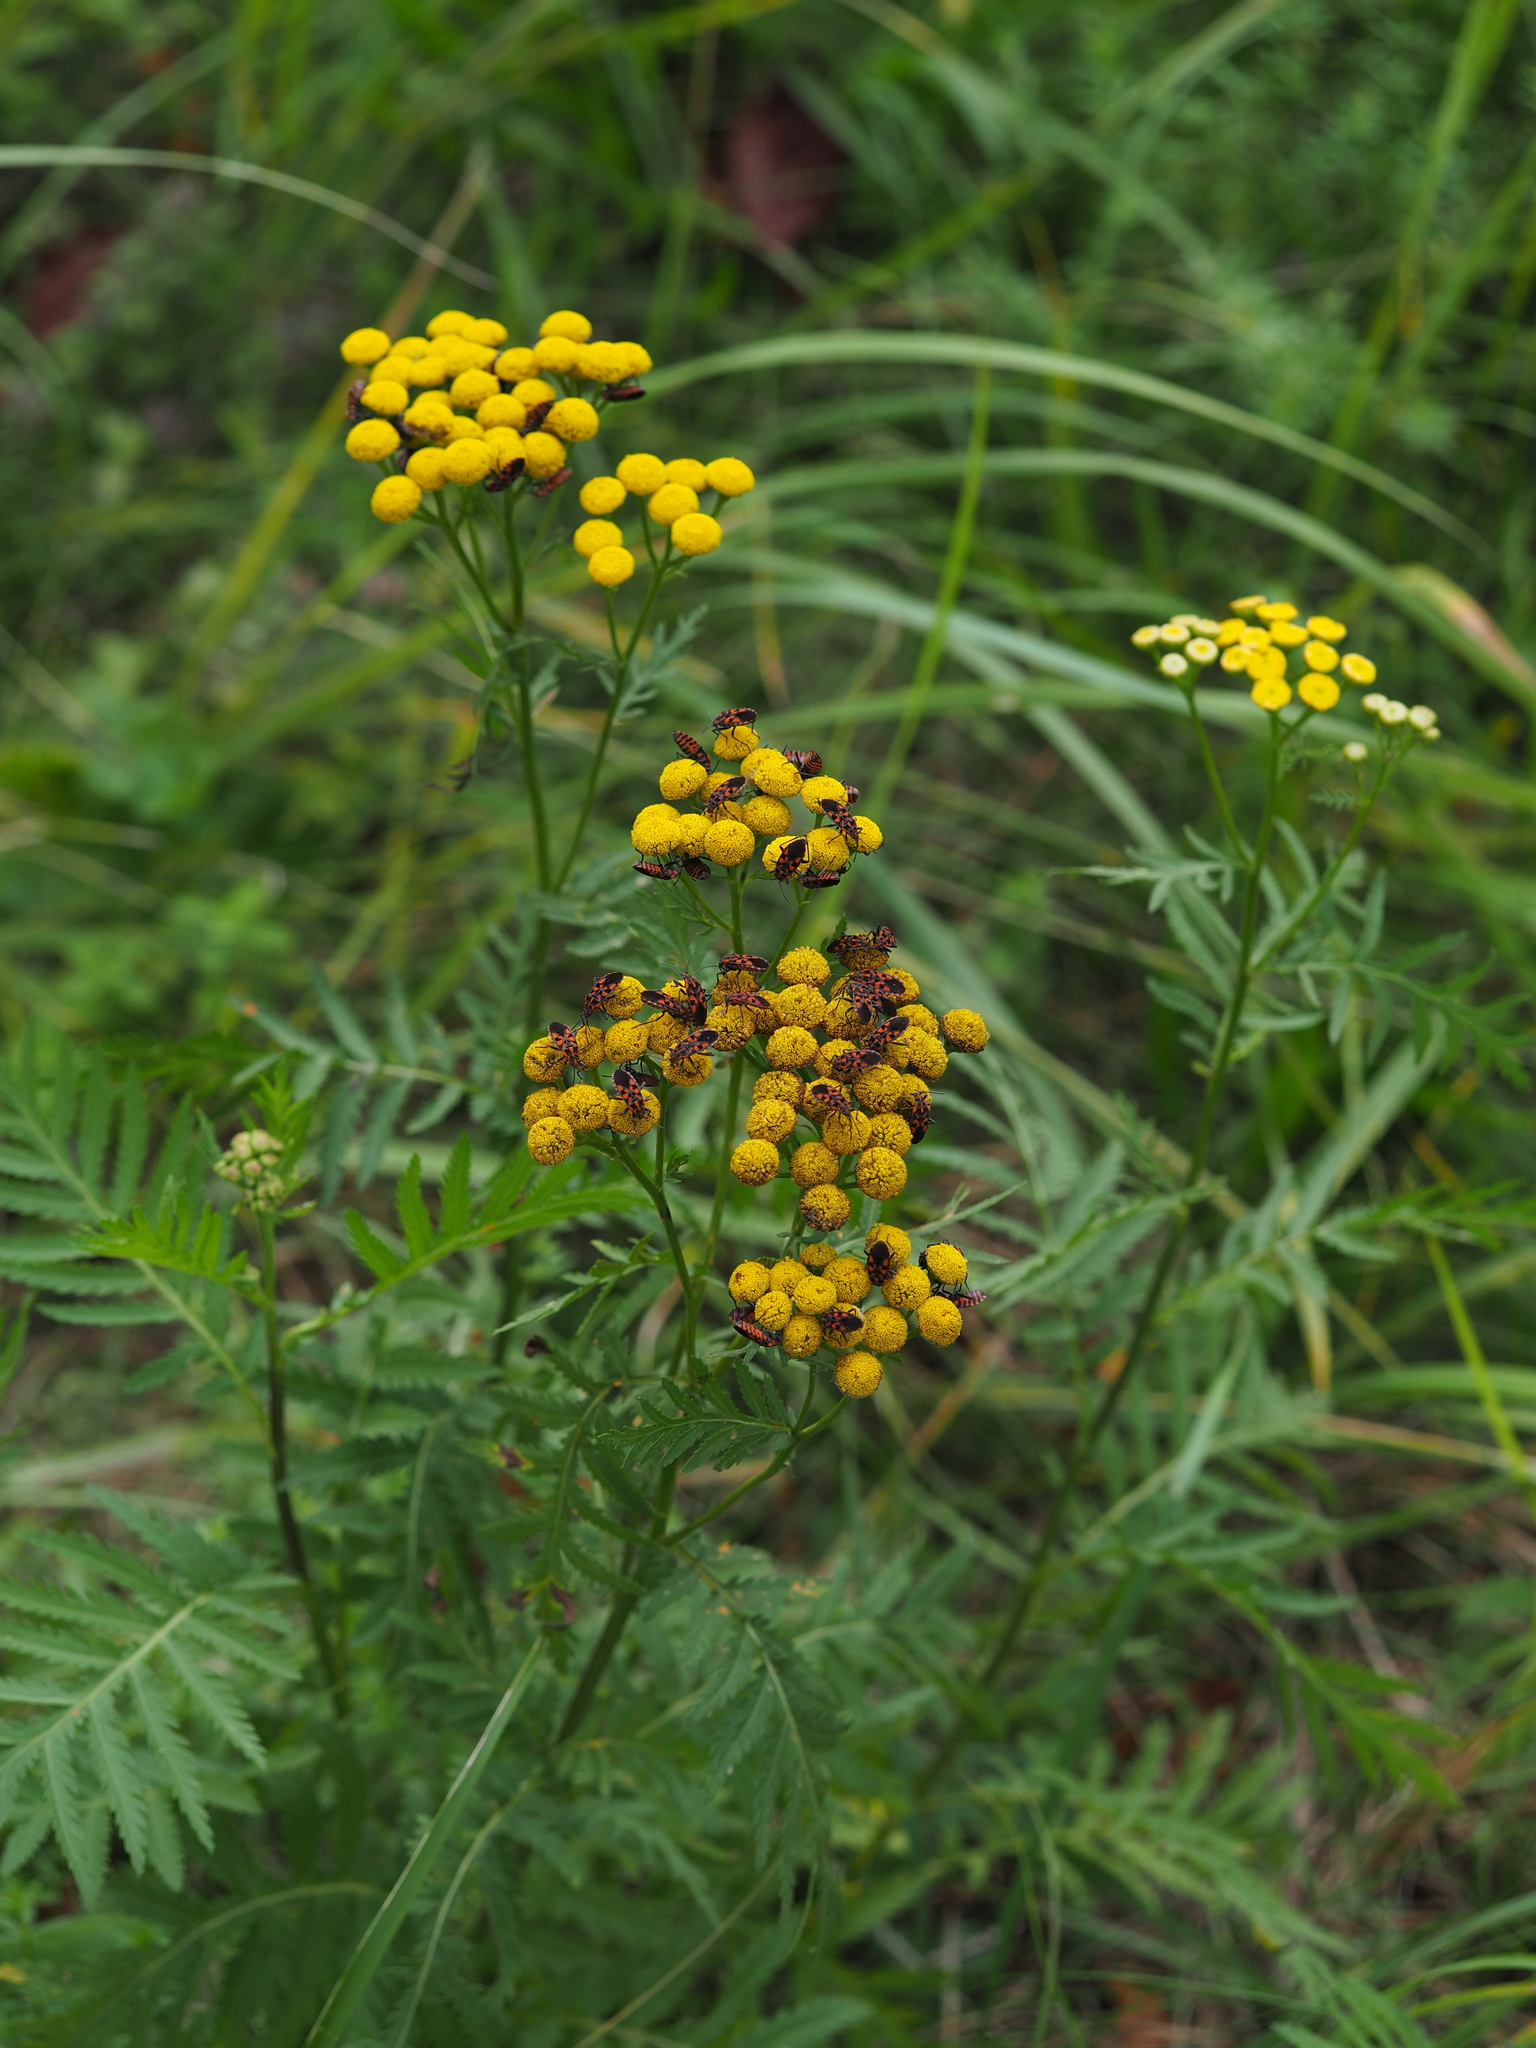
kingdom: Animalia
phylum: Arthropoda
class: Insecta
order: Hemiptera
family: Lygaeidae
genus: Spilostethus
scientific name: Spilostethus saxatilis
